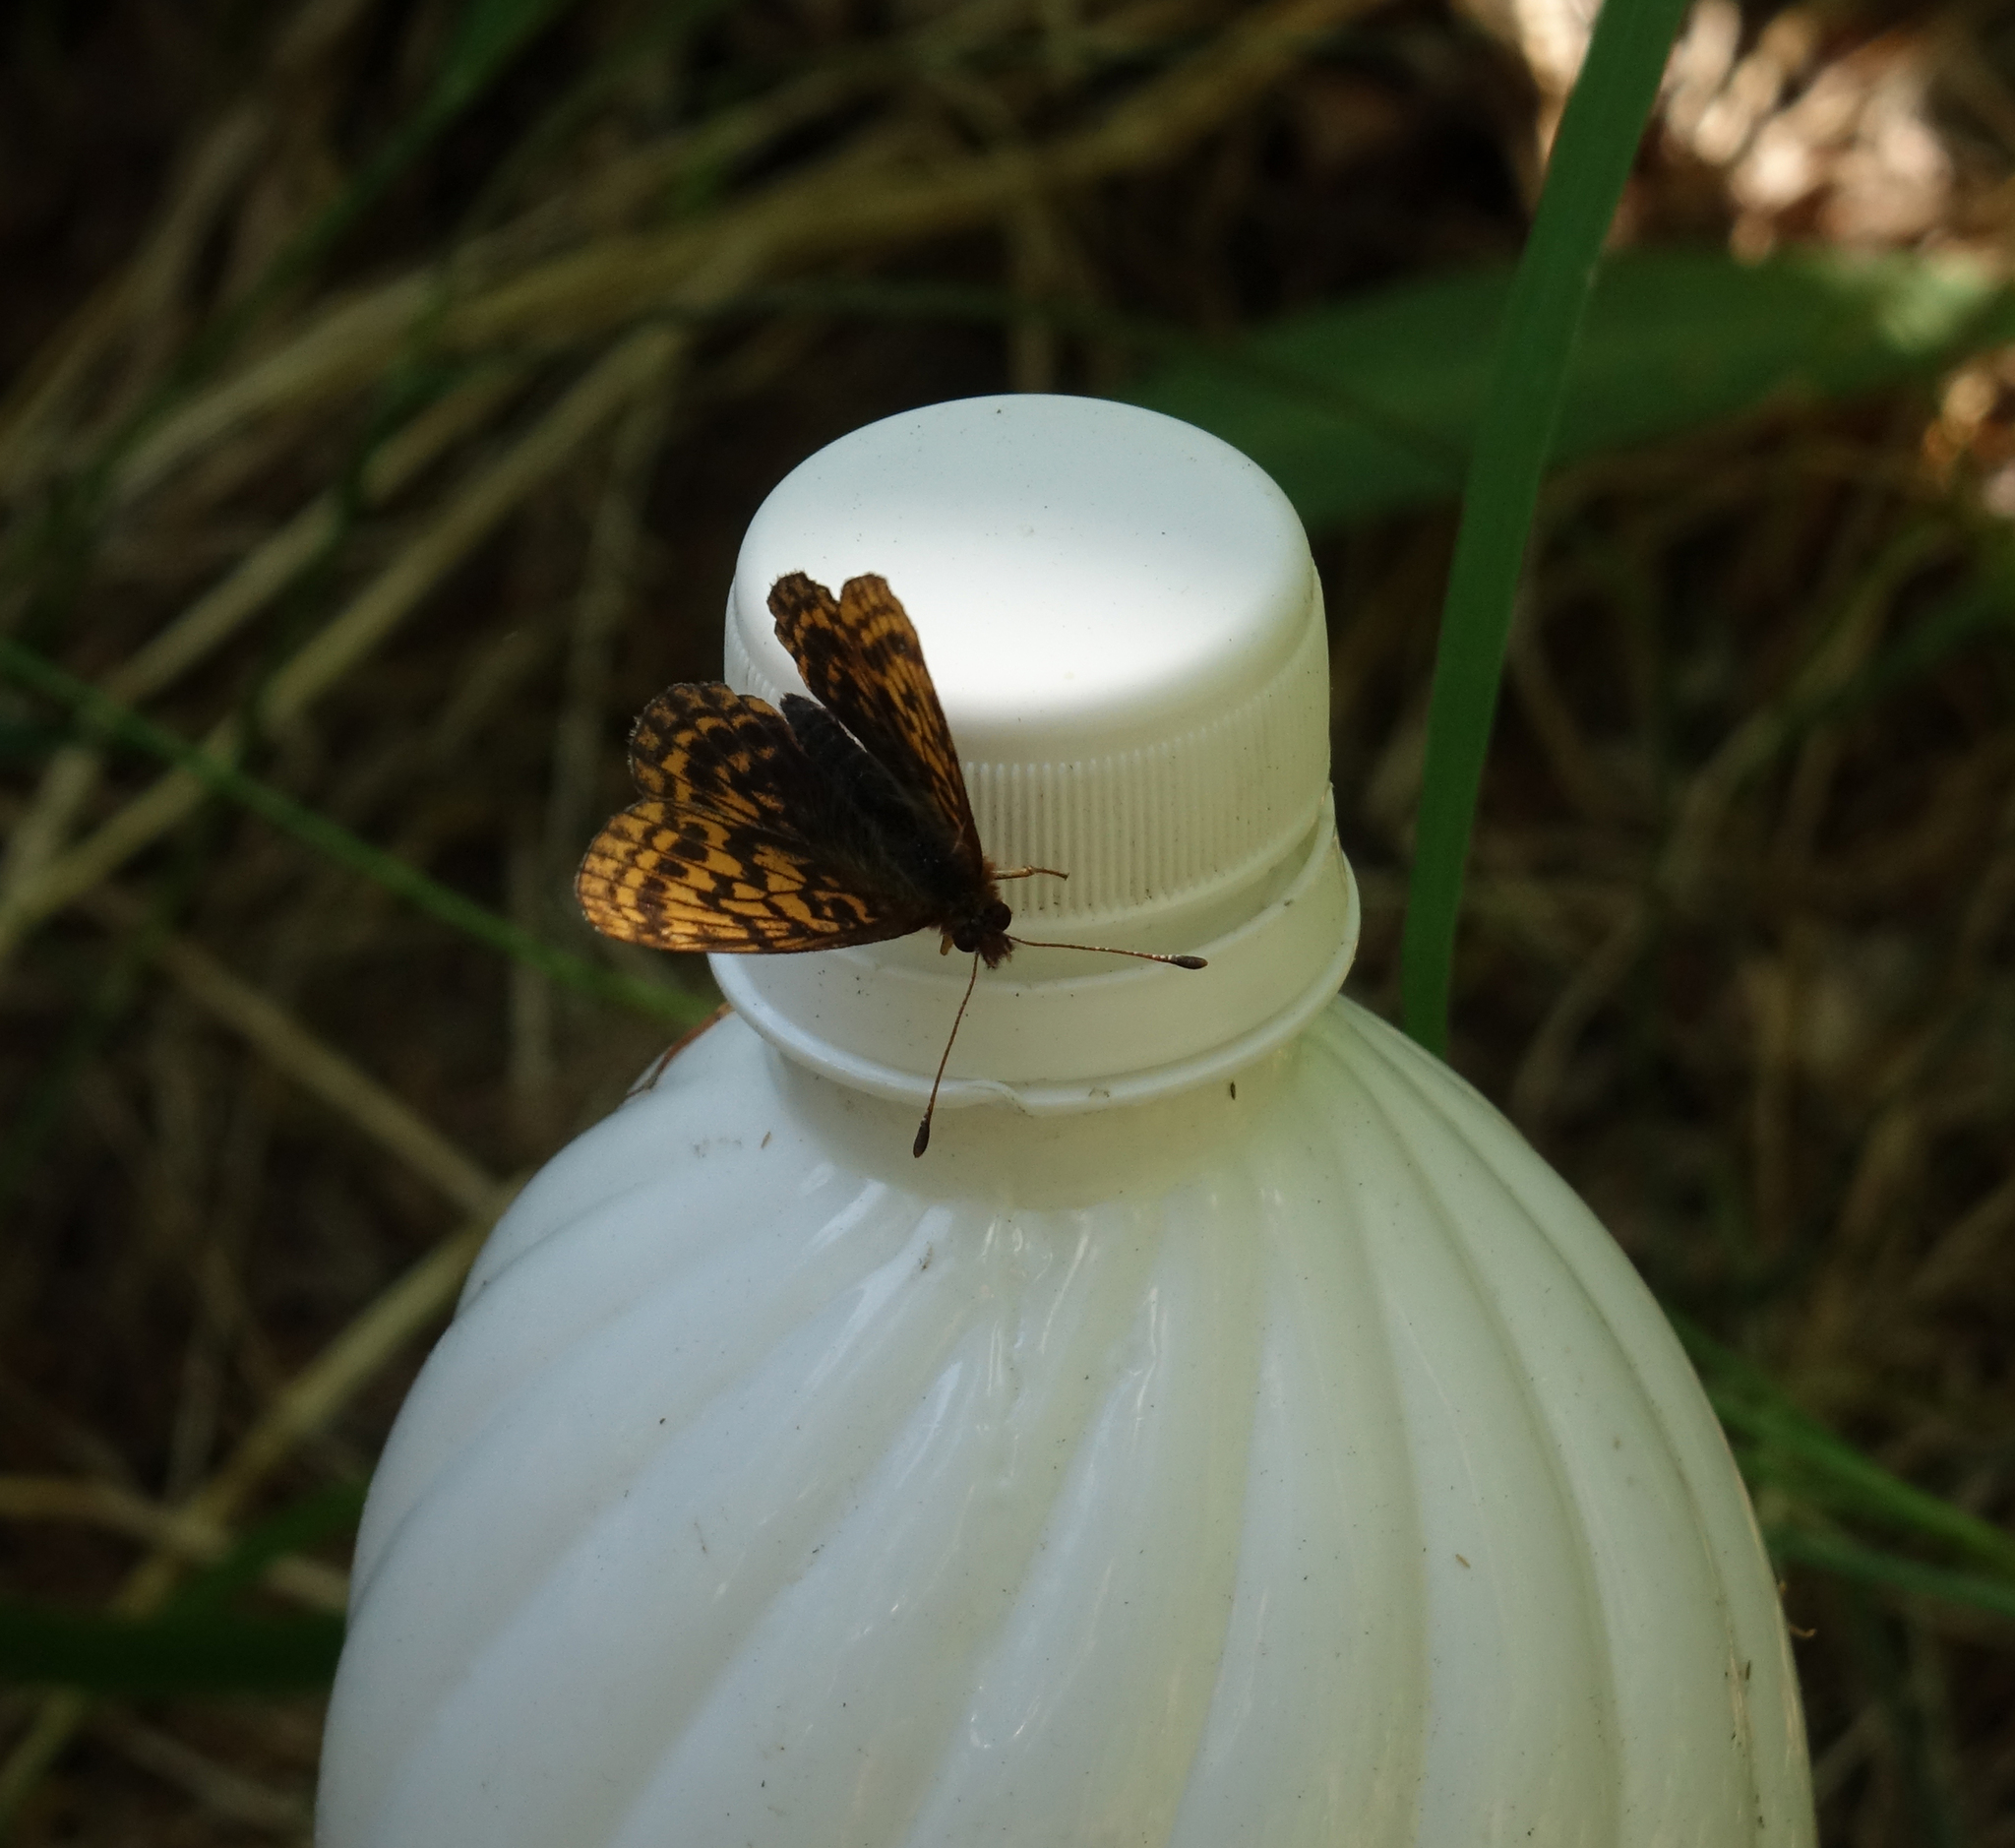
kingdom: Animalia
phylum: Arthropoda
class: Insecta
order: Lepidoptera
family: Nymphalidae
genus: Boloria
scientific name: Boloria frigga
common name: Frigga's fritillary
